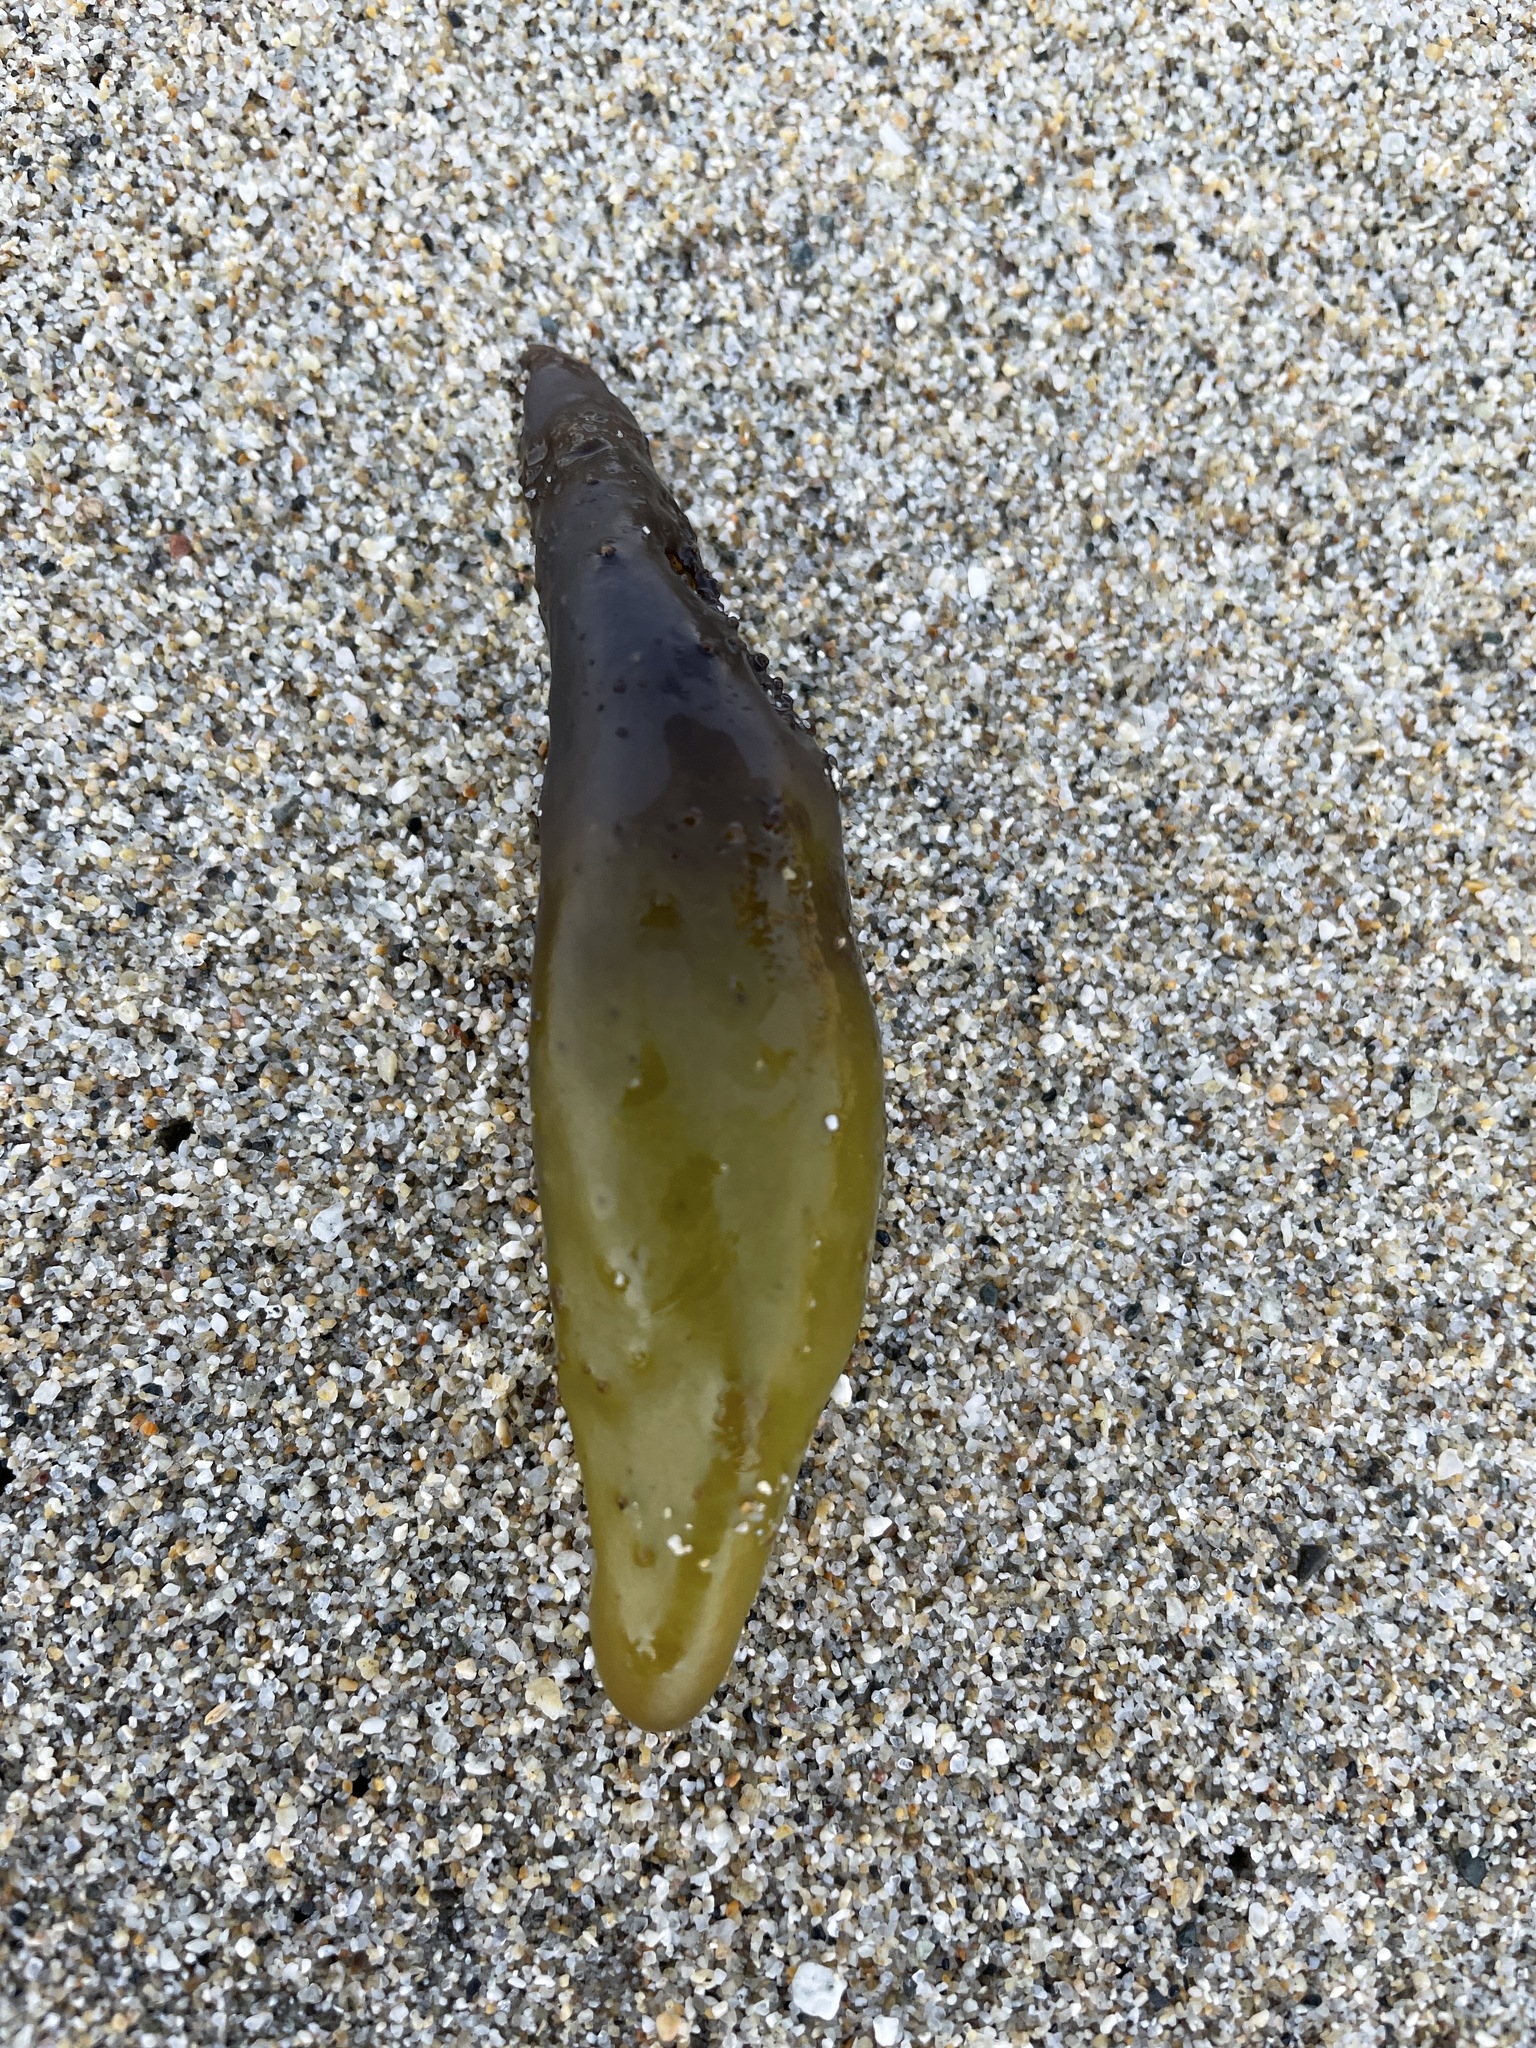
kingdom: Plantae
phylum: Rhodophyta
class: Florideophyceae
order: Palmariales
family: Palmariaceae
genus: Halosaccion
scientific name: Halosaccion glandiforme
